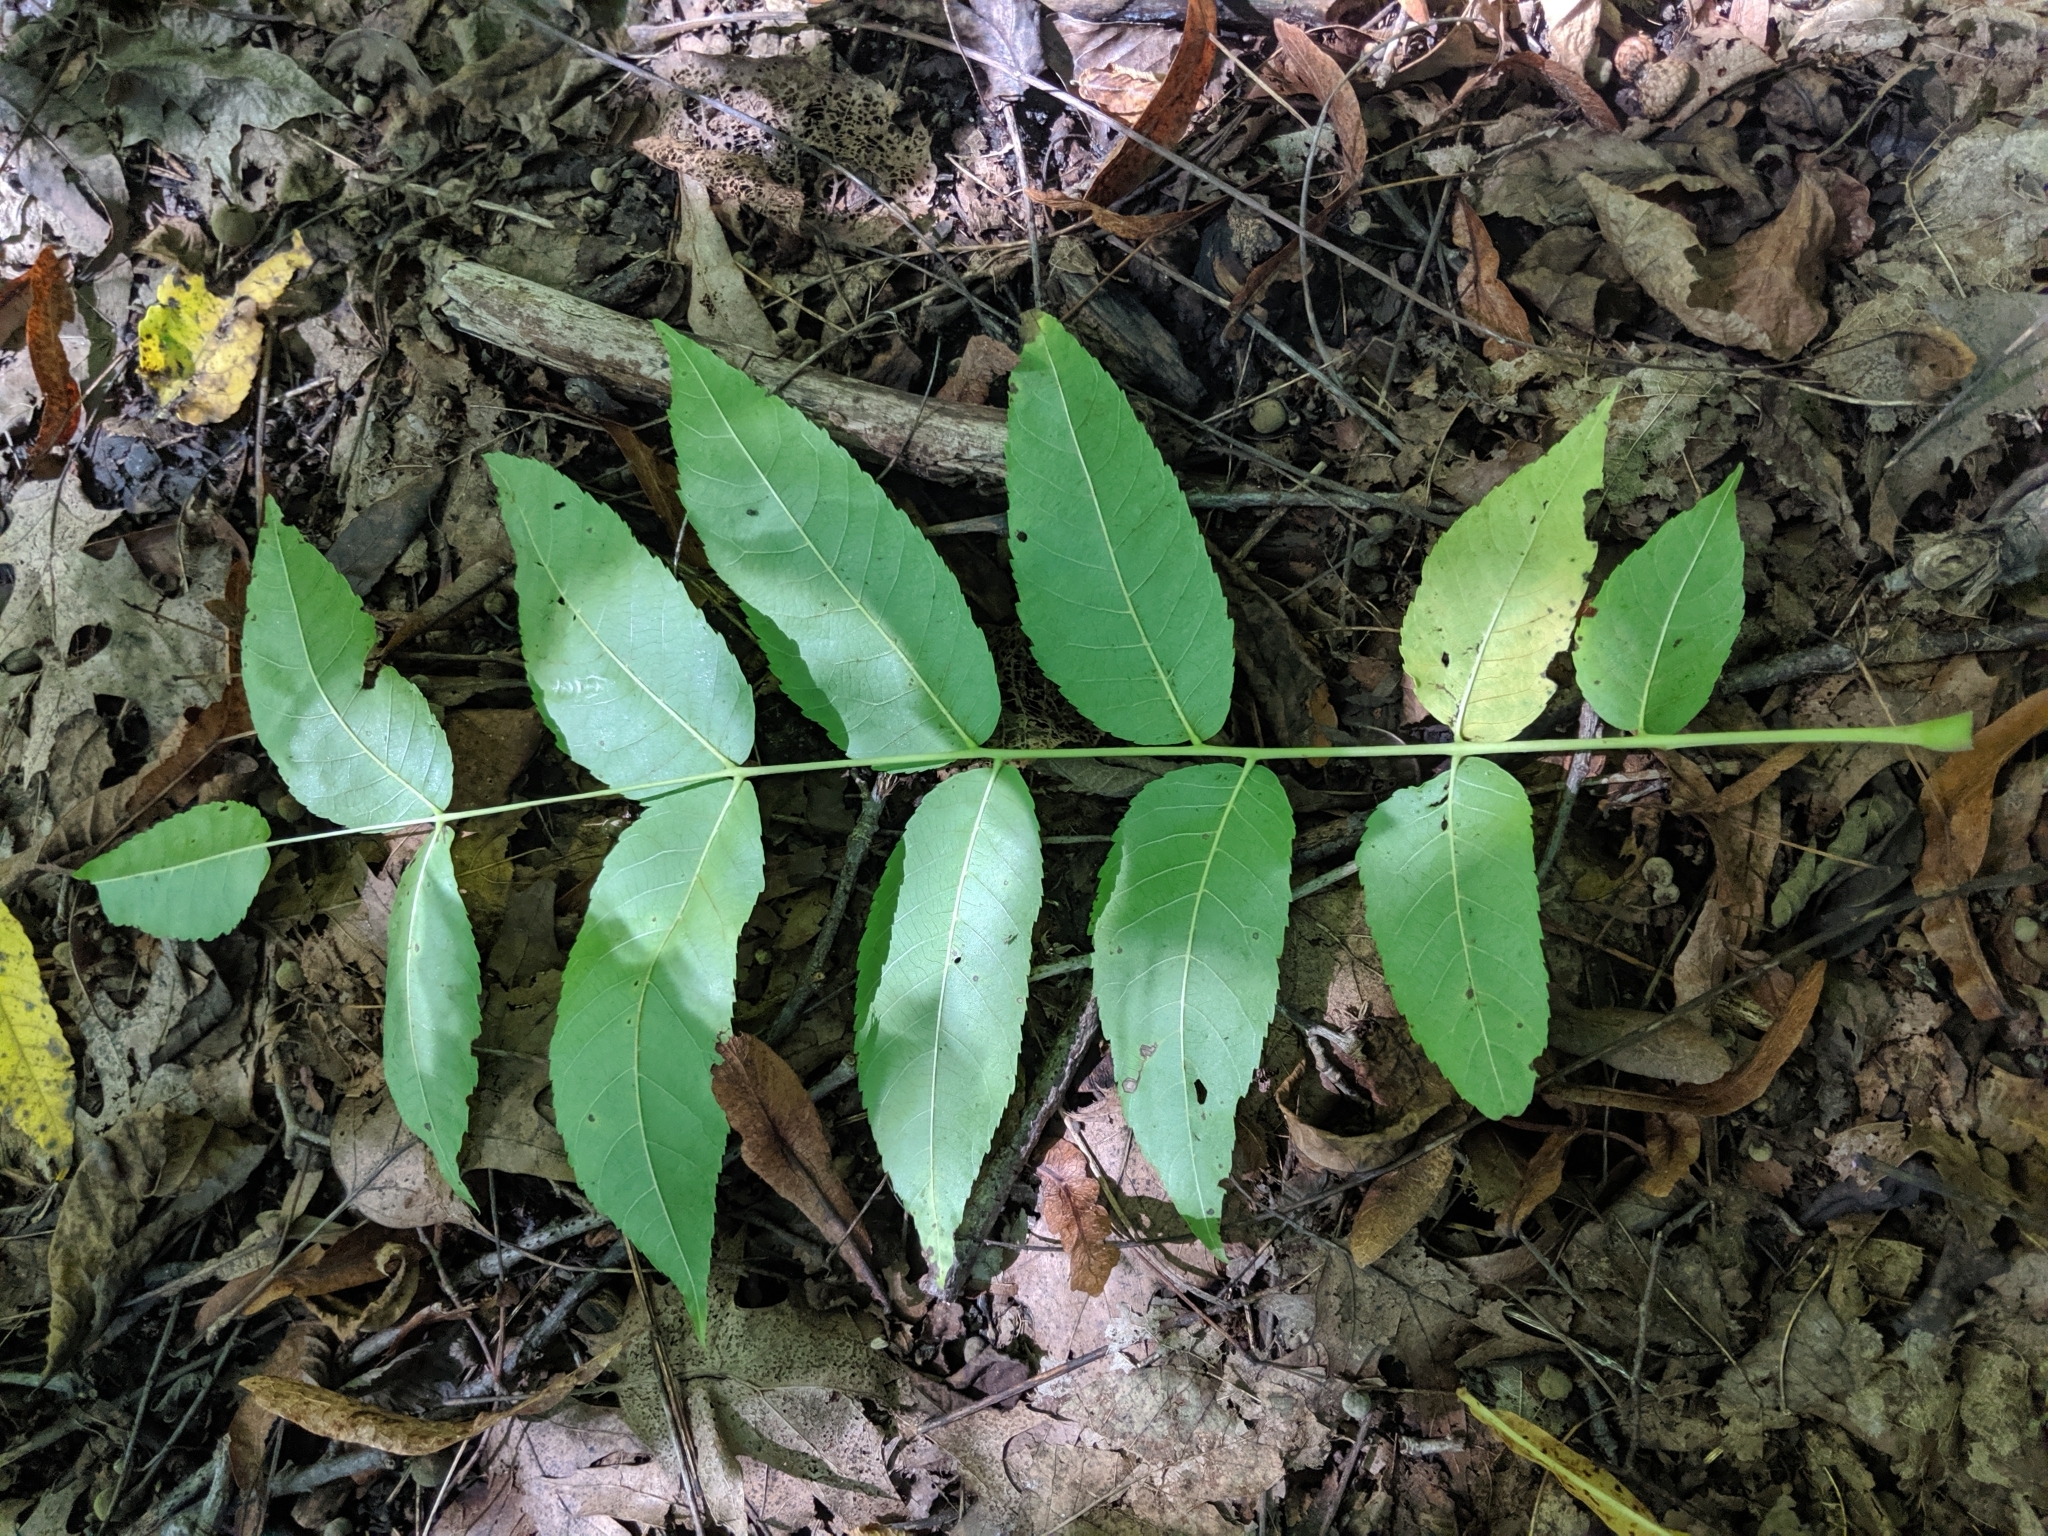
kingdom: Plantae
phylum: Tracheophyta
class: Magnoliopsida
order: Fagales
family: Juglandaceae
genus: Juglans
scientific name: Juglans nigra
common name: Black walnut
